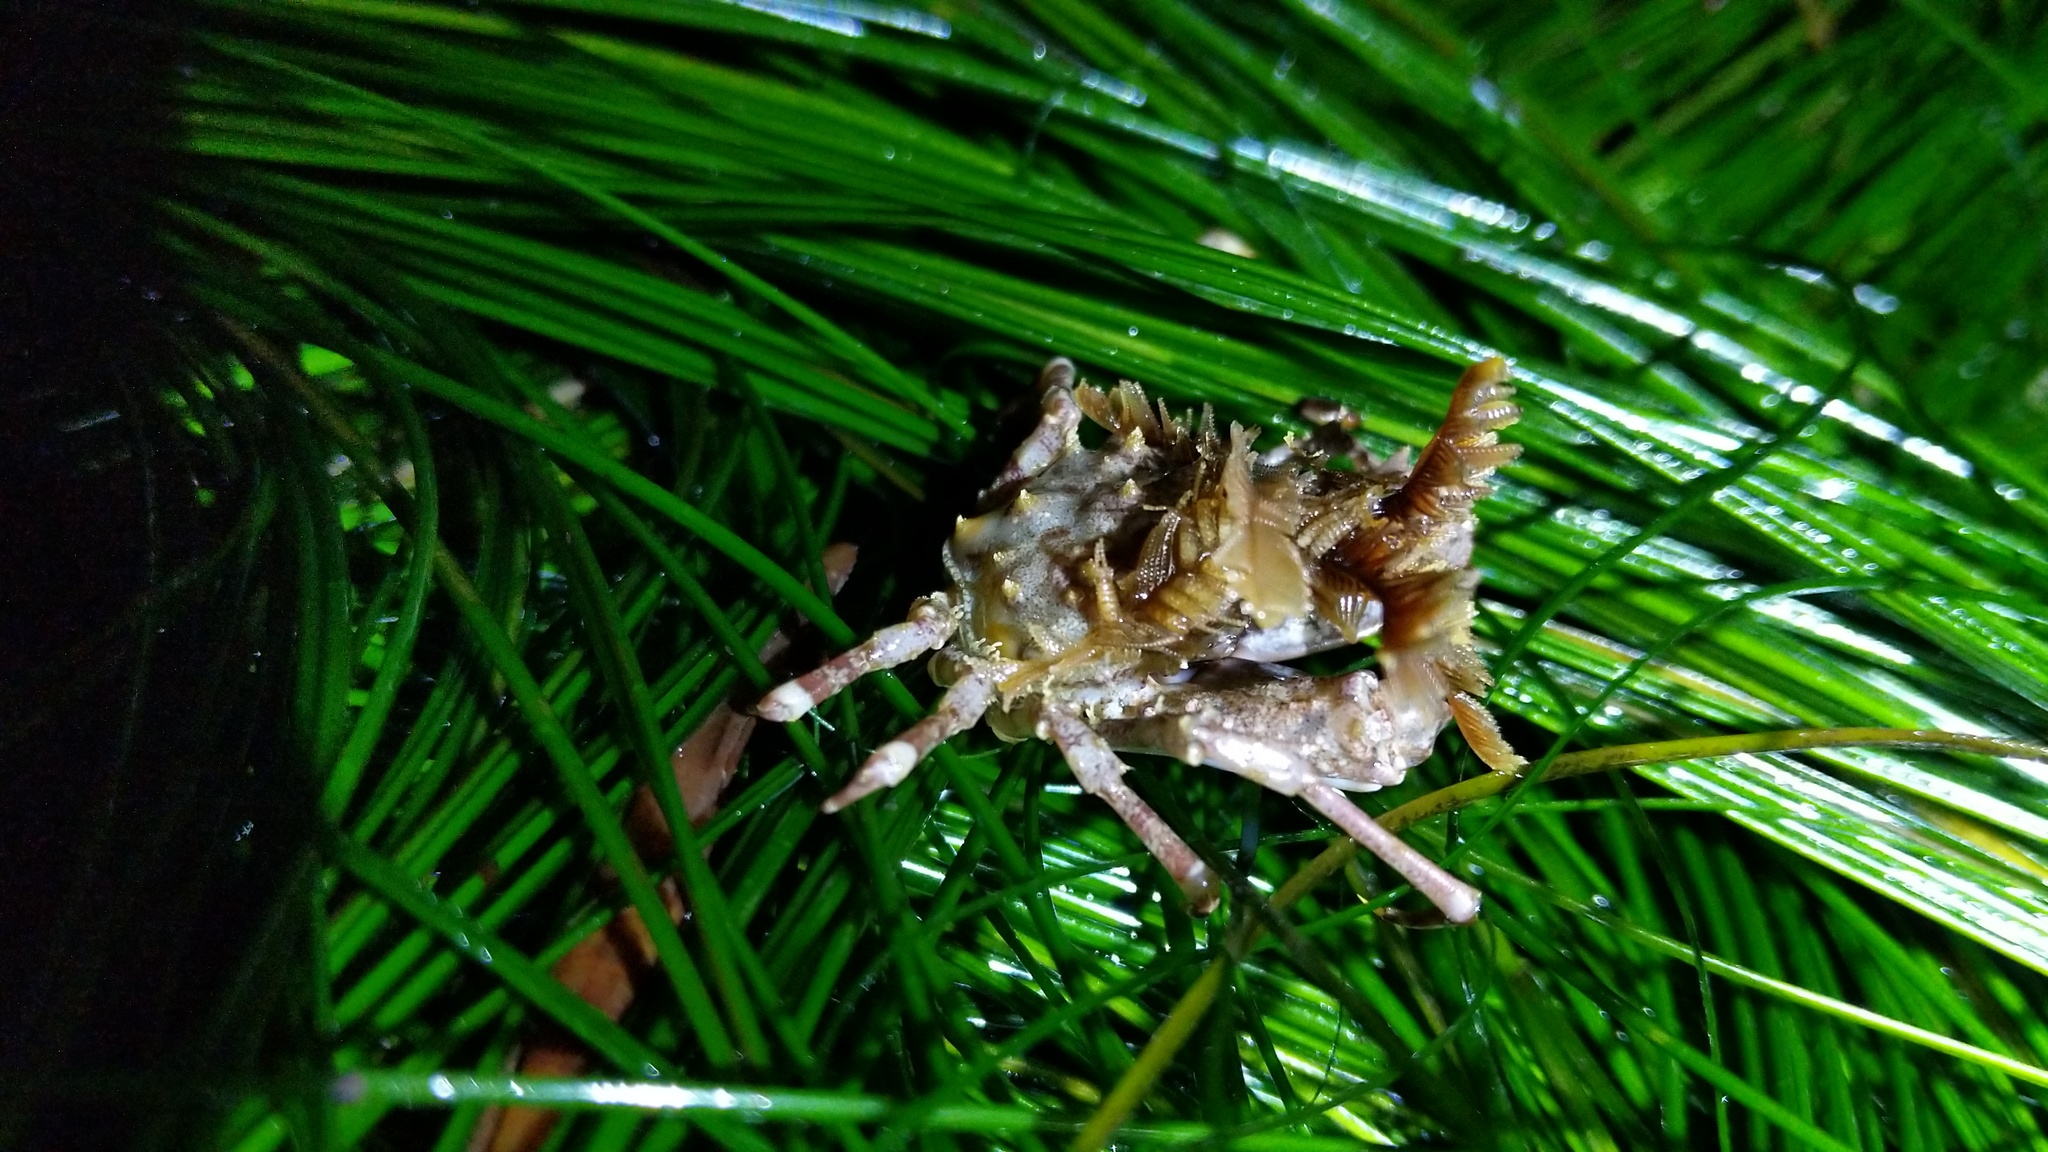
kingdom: Animalia
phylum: Arthropoda
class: Malacostraca
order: Decapoda
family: Epialtidae
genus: Pugettia
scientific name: Pugettia richii
